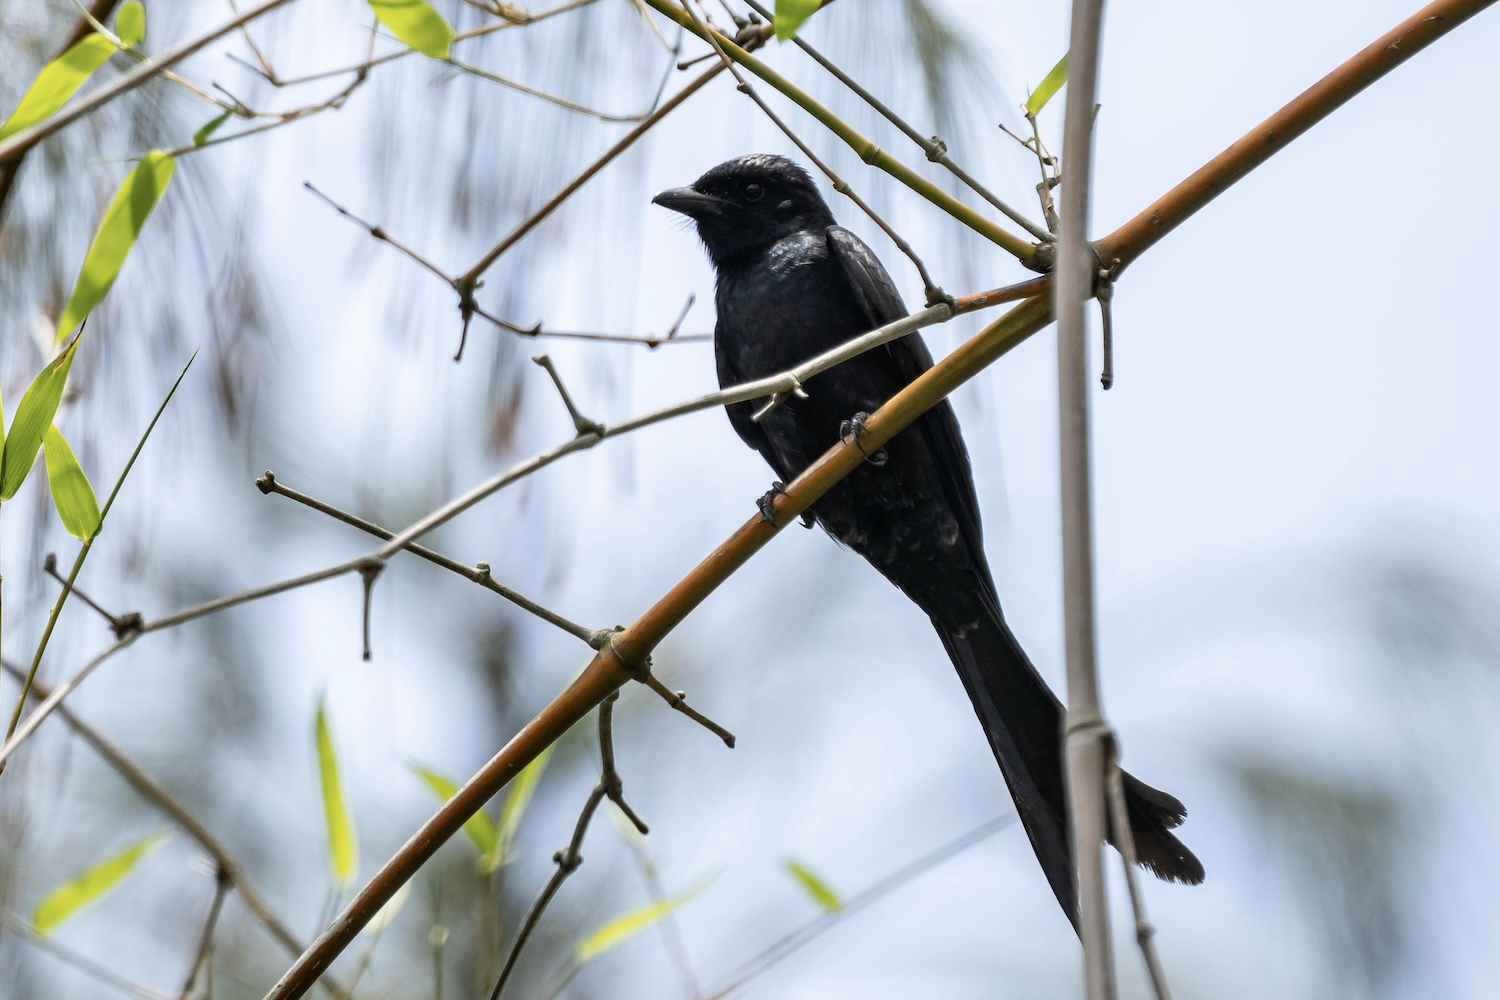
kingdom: Animalia
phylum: Chordata
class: Aves
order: Passeriformes
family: Dicruridae
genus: Dicrurus
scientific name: Dicrurus macrocercus
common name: Black drongo
